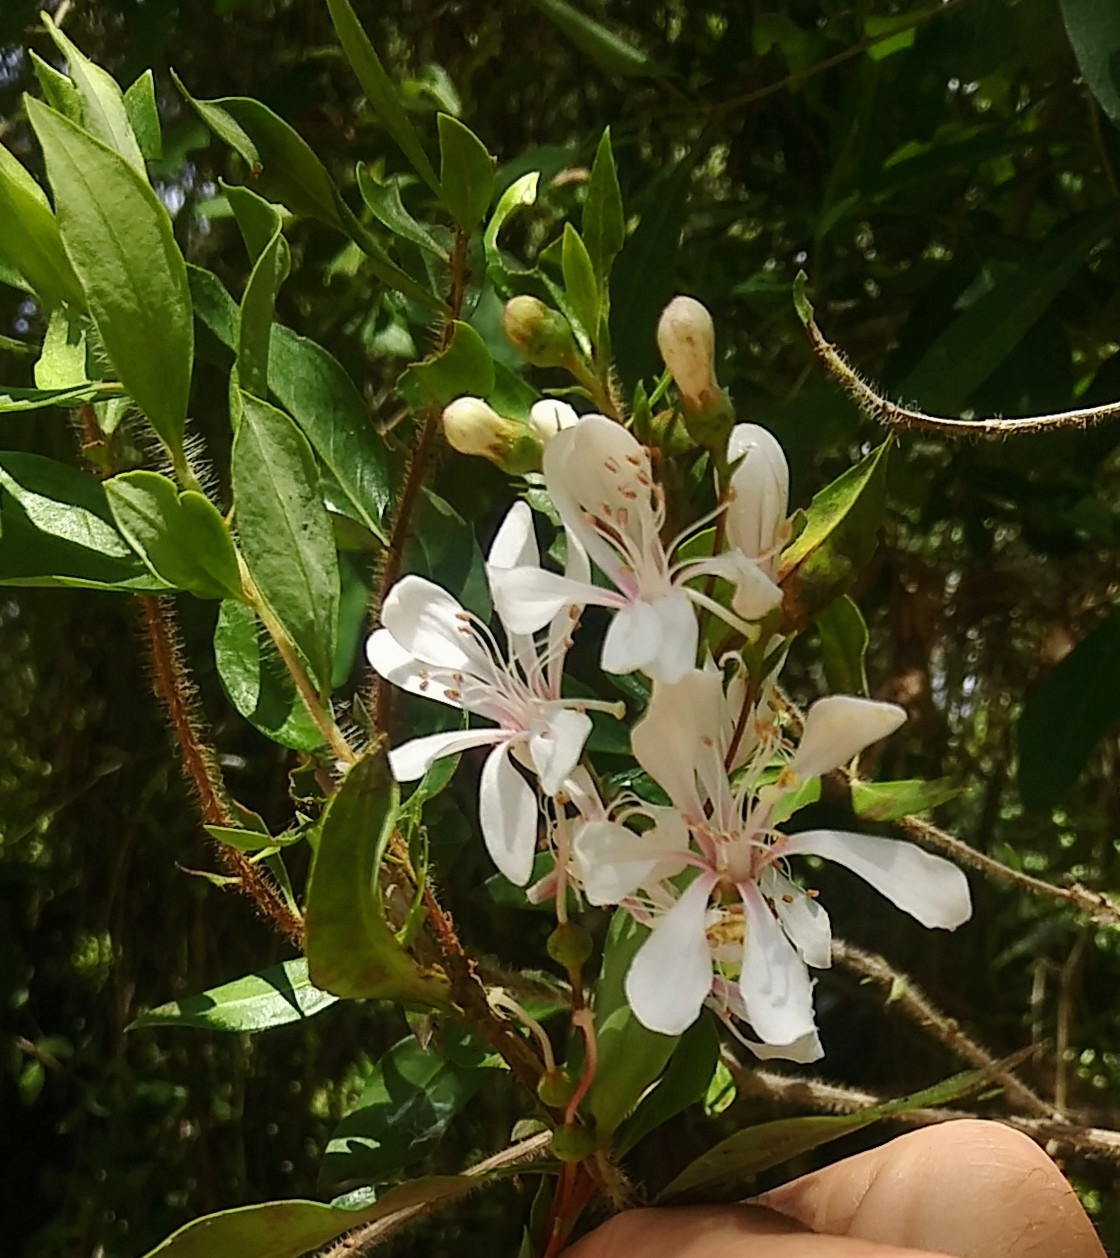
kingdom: Plantae
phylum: Tracheophyta
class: Magnoliopsida
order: Ericales
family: Ericaceae
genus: Bejaria
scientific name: Bejaria racemosa
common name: Tarflower
